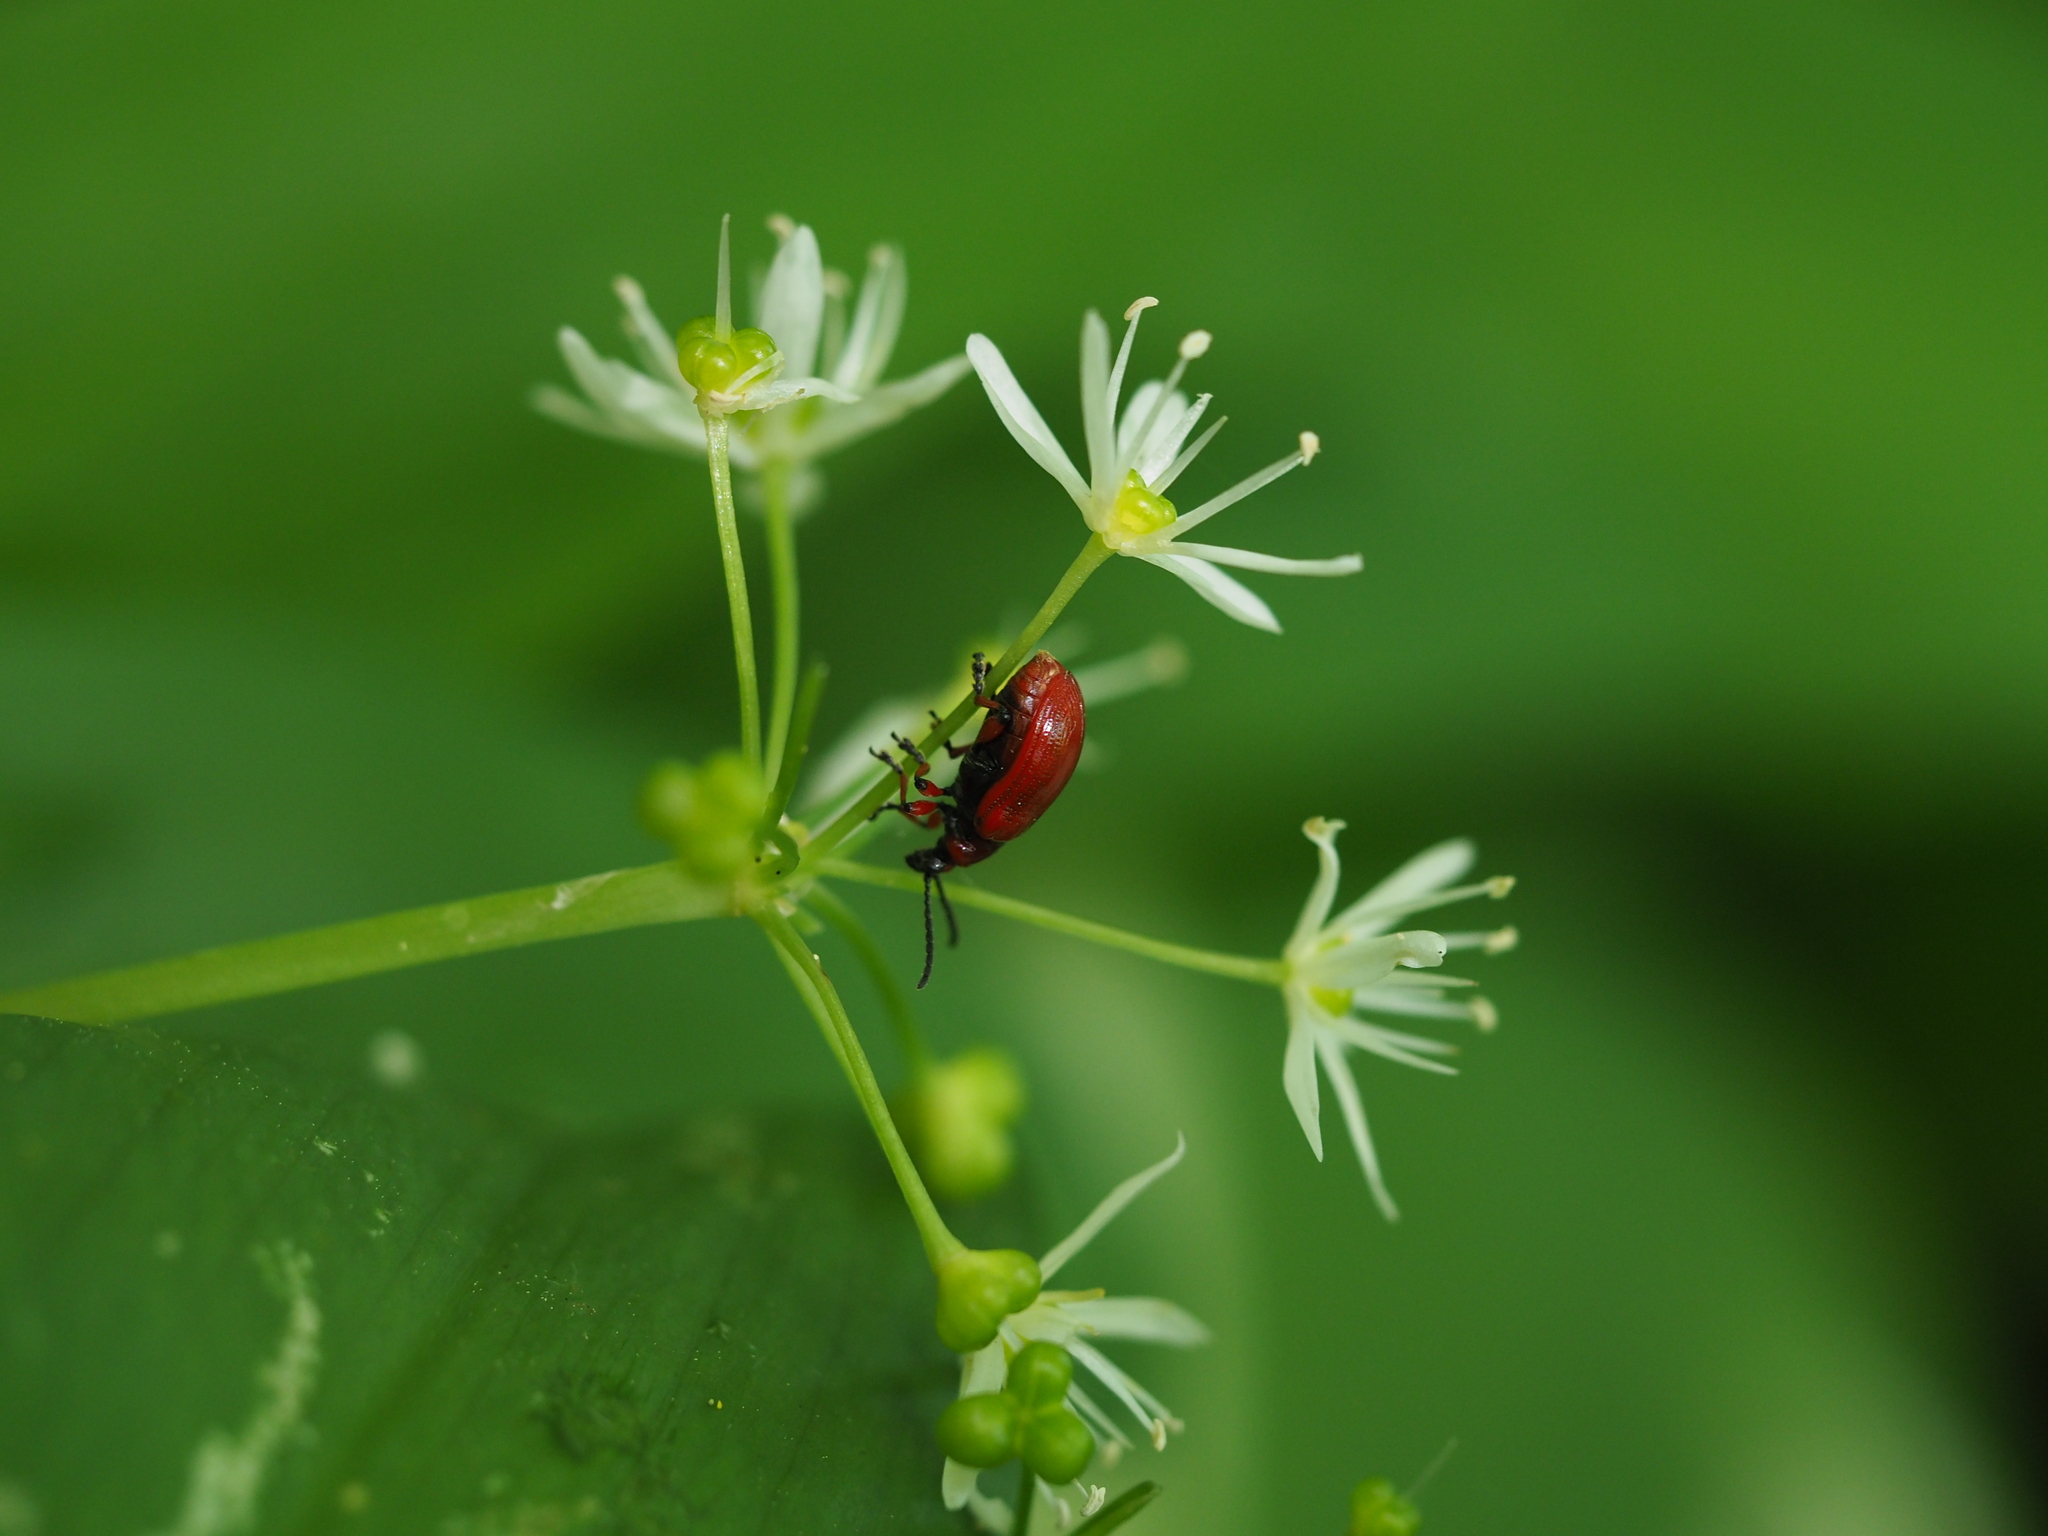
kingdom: Animalia
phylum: Arthropoda
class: Insecta
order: Coleoptera
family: Chrysomelidae
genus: Lilioceris
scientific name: Lilioceris merdigera
